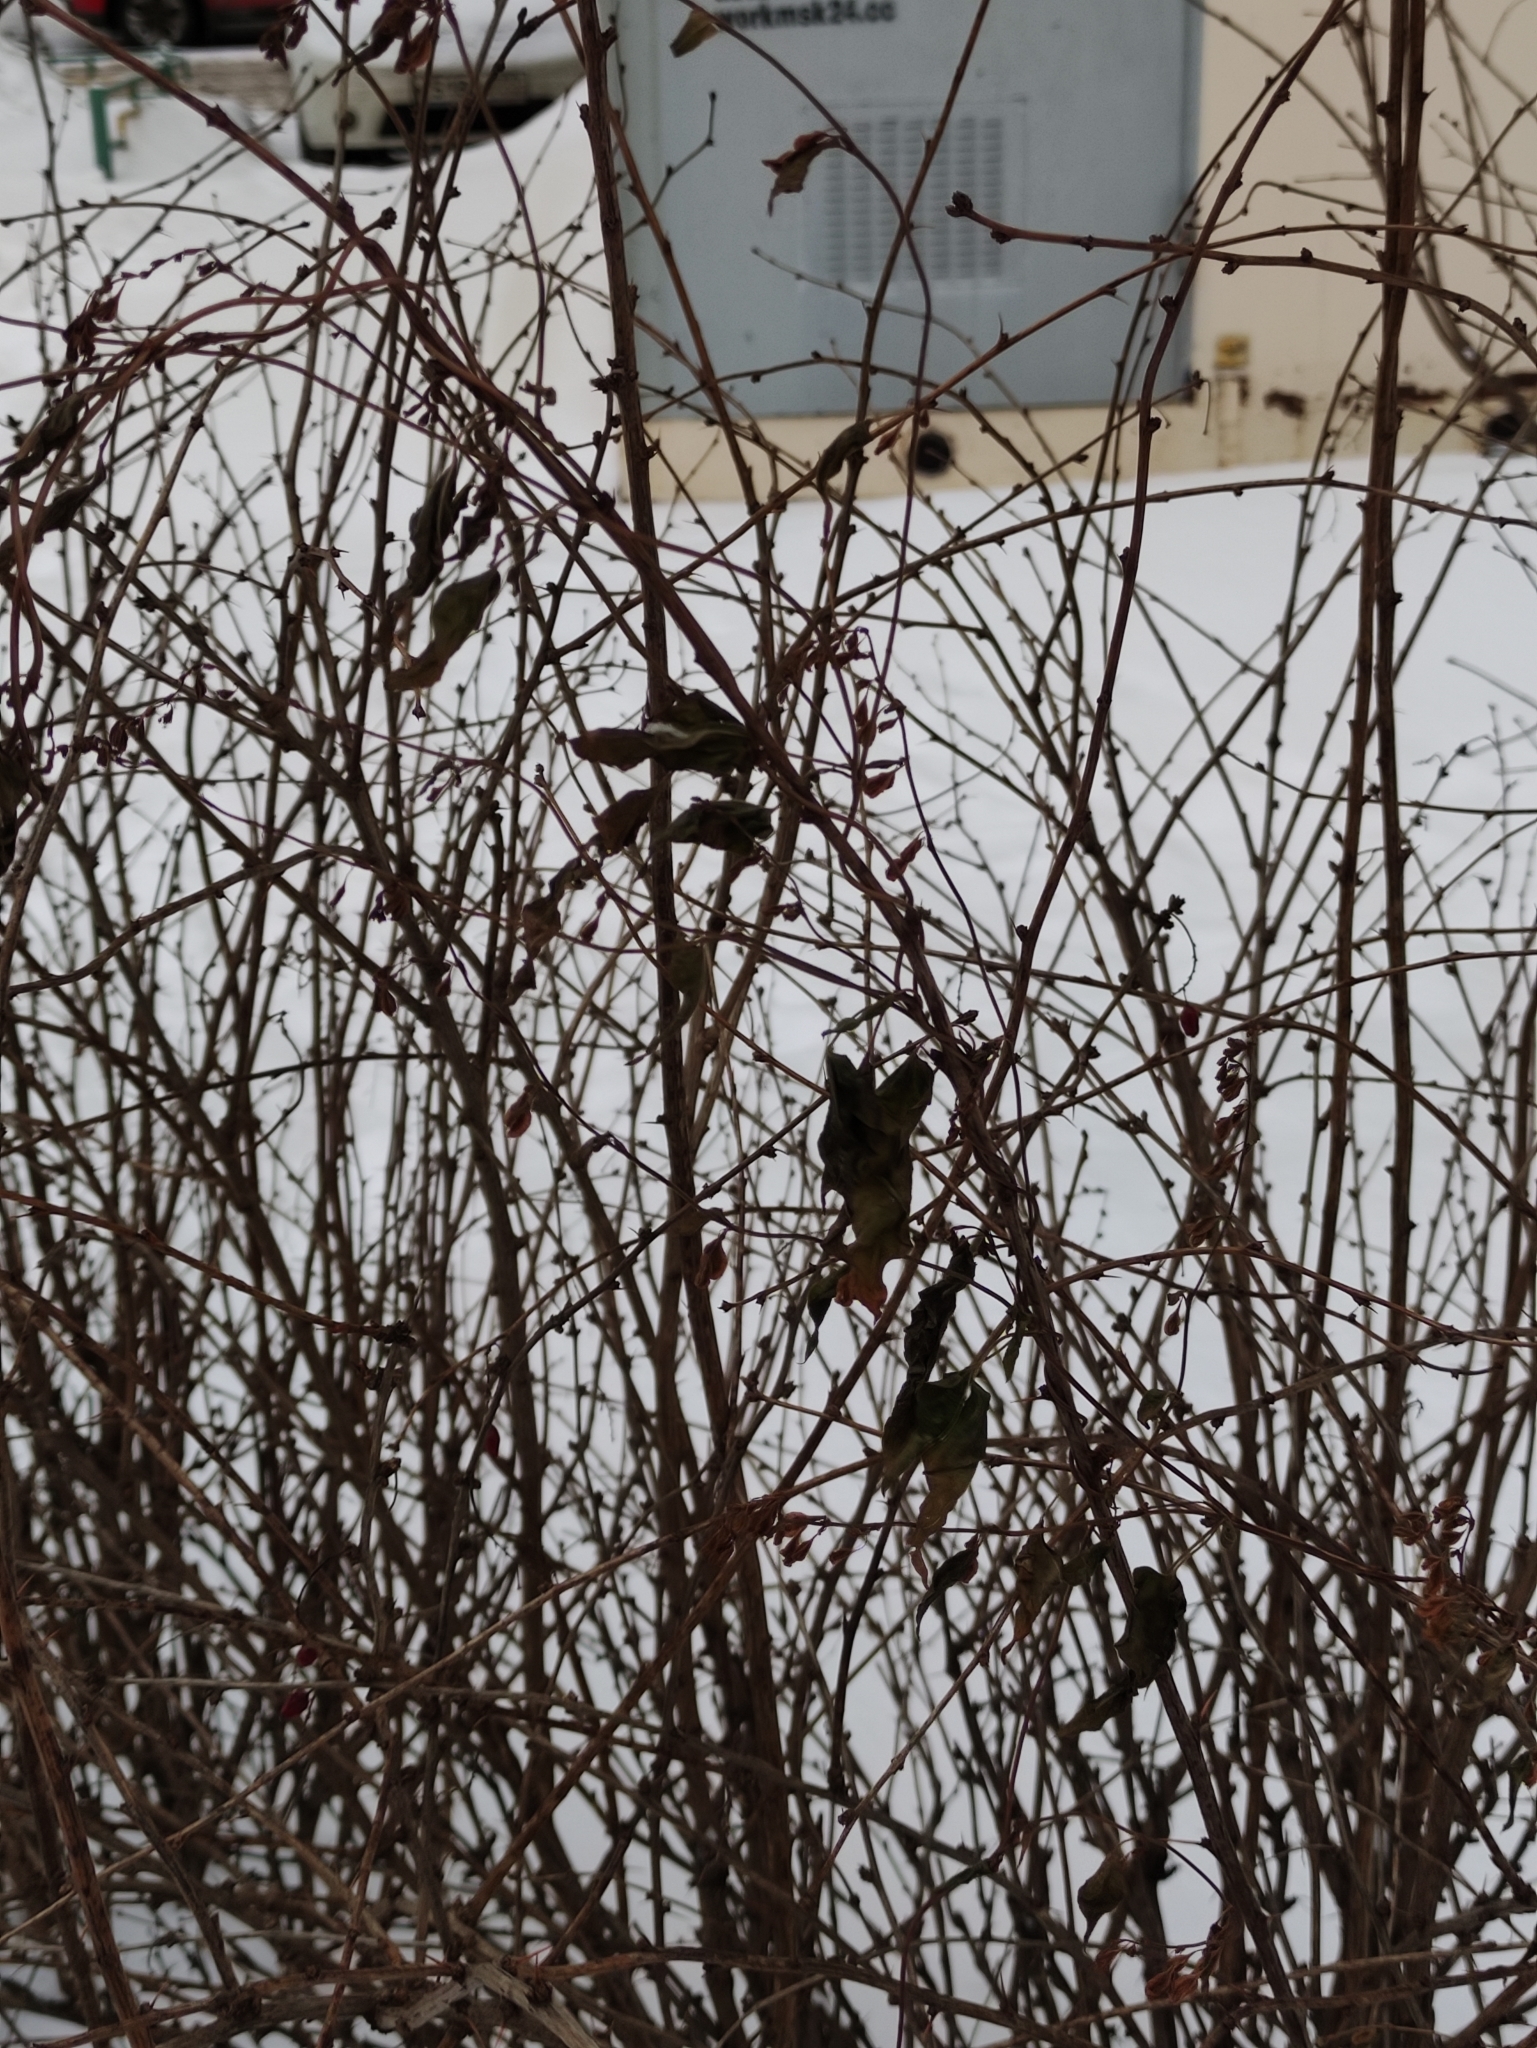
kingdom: Plantae
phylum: Tracheophyta
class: Magnoliopsida
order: Caryophyllales
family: Polygonaceae
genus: Fallopia
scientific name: Fallopia dumetorum
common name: Copse-bindweed
